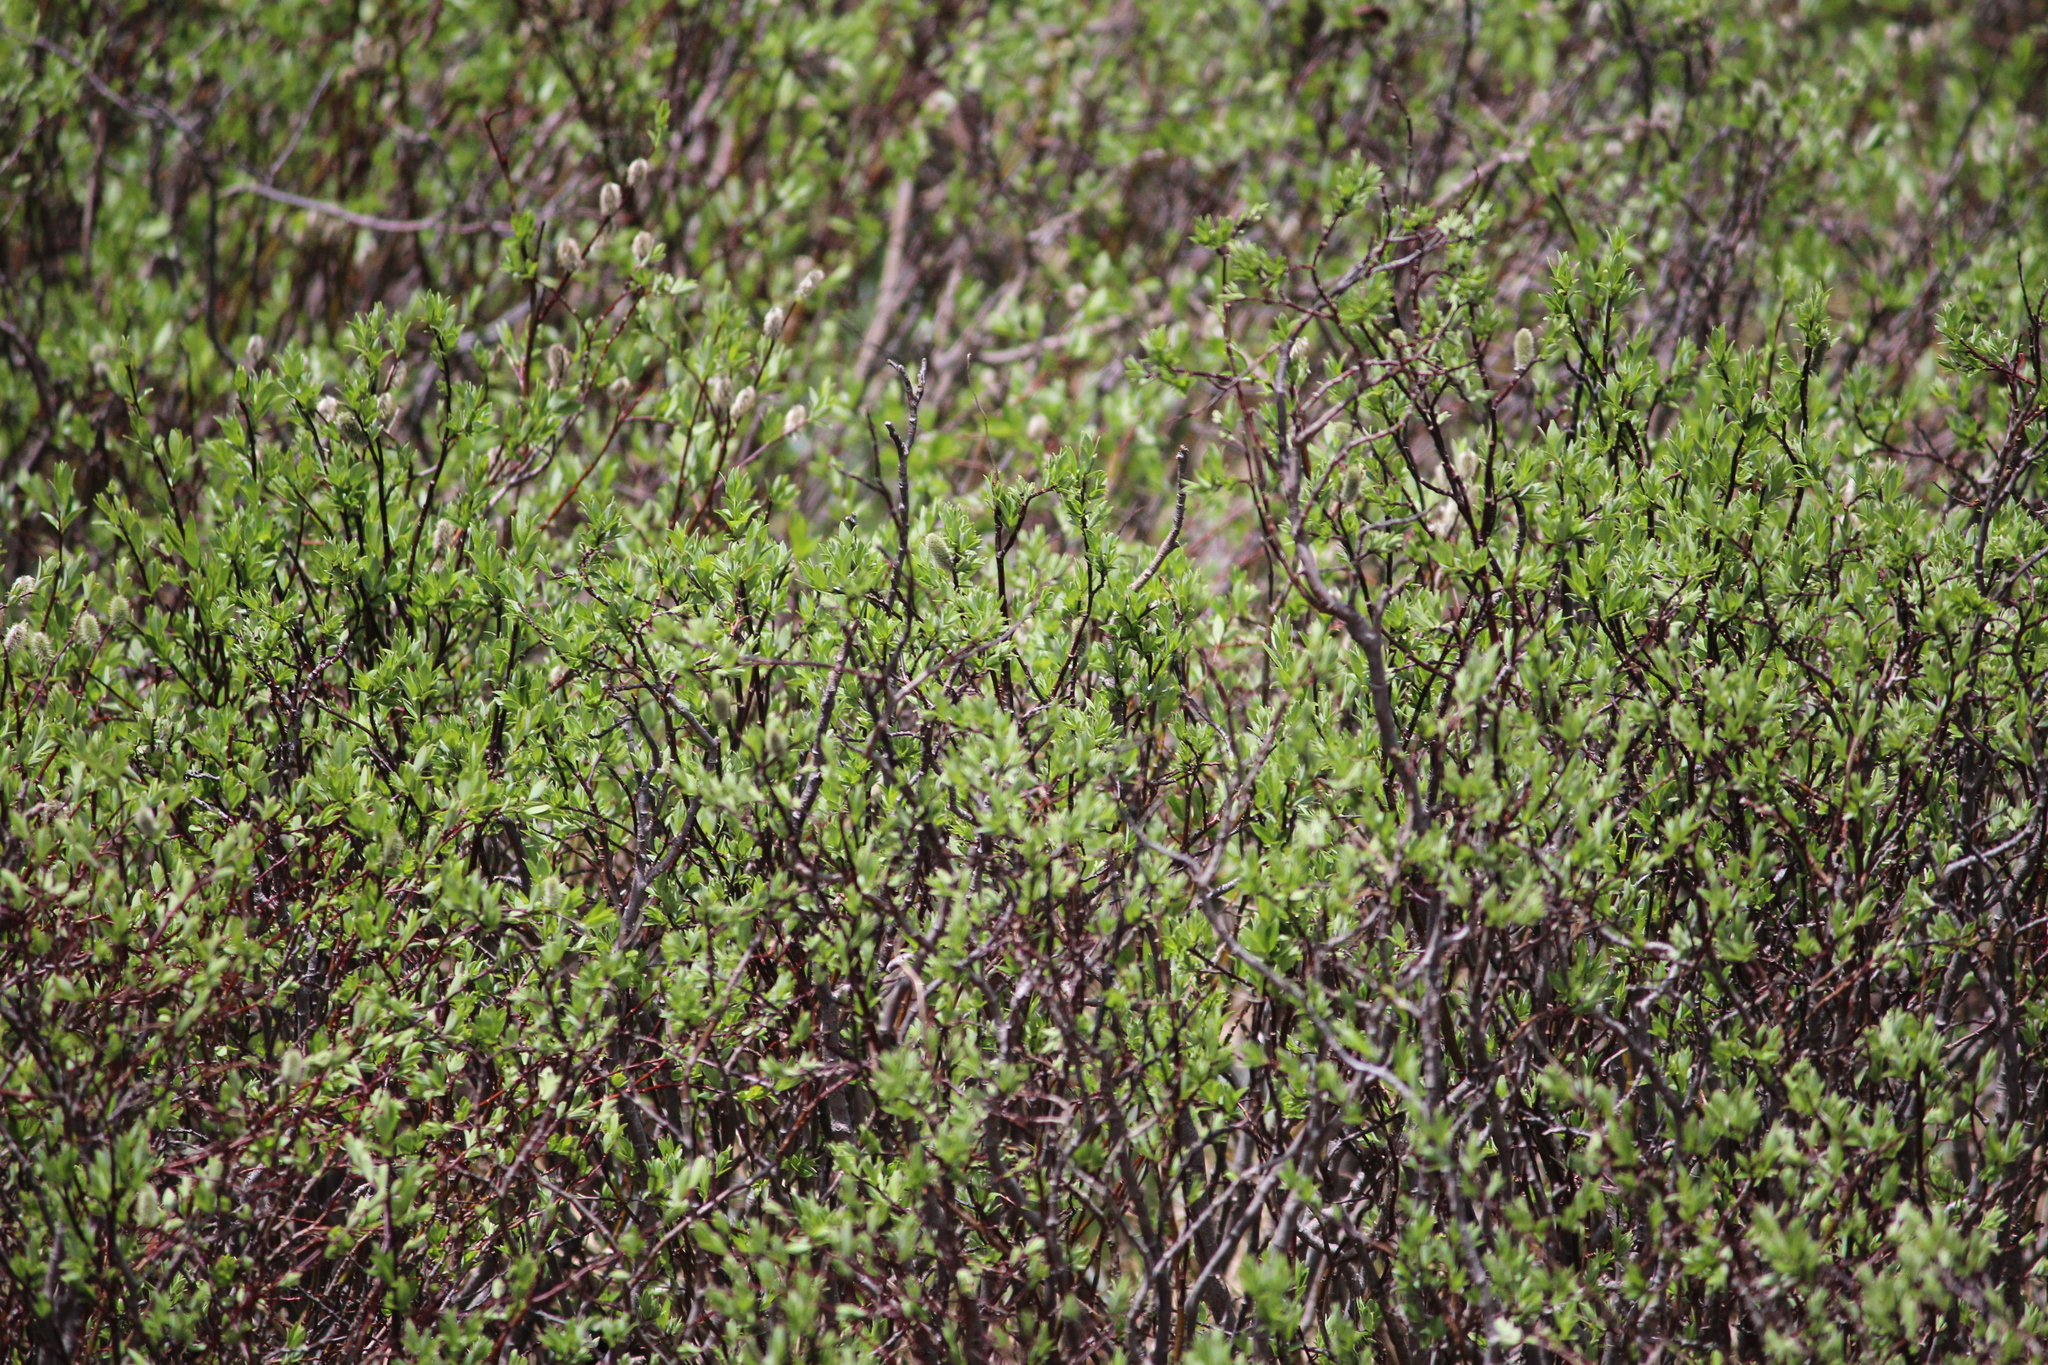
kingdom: Plantae
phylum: Tracheophyta
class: Magnoliopsida
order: Malpighiales
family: Salicaceae
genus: Salix
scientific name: Salix planifolia
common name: Mountain willow
